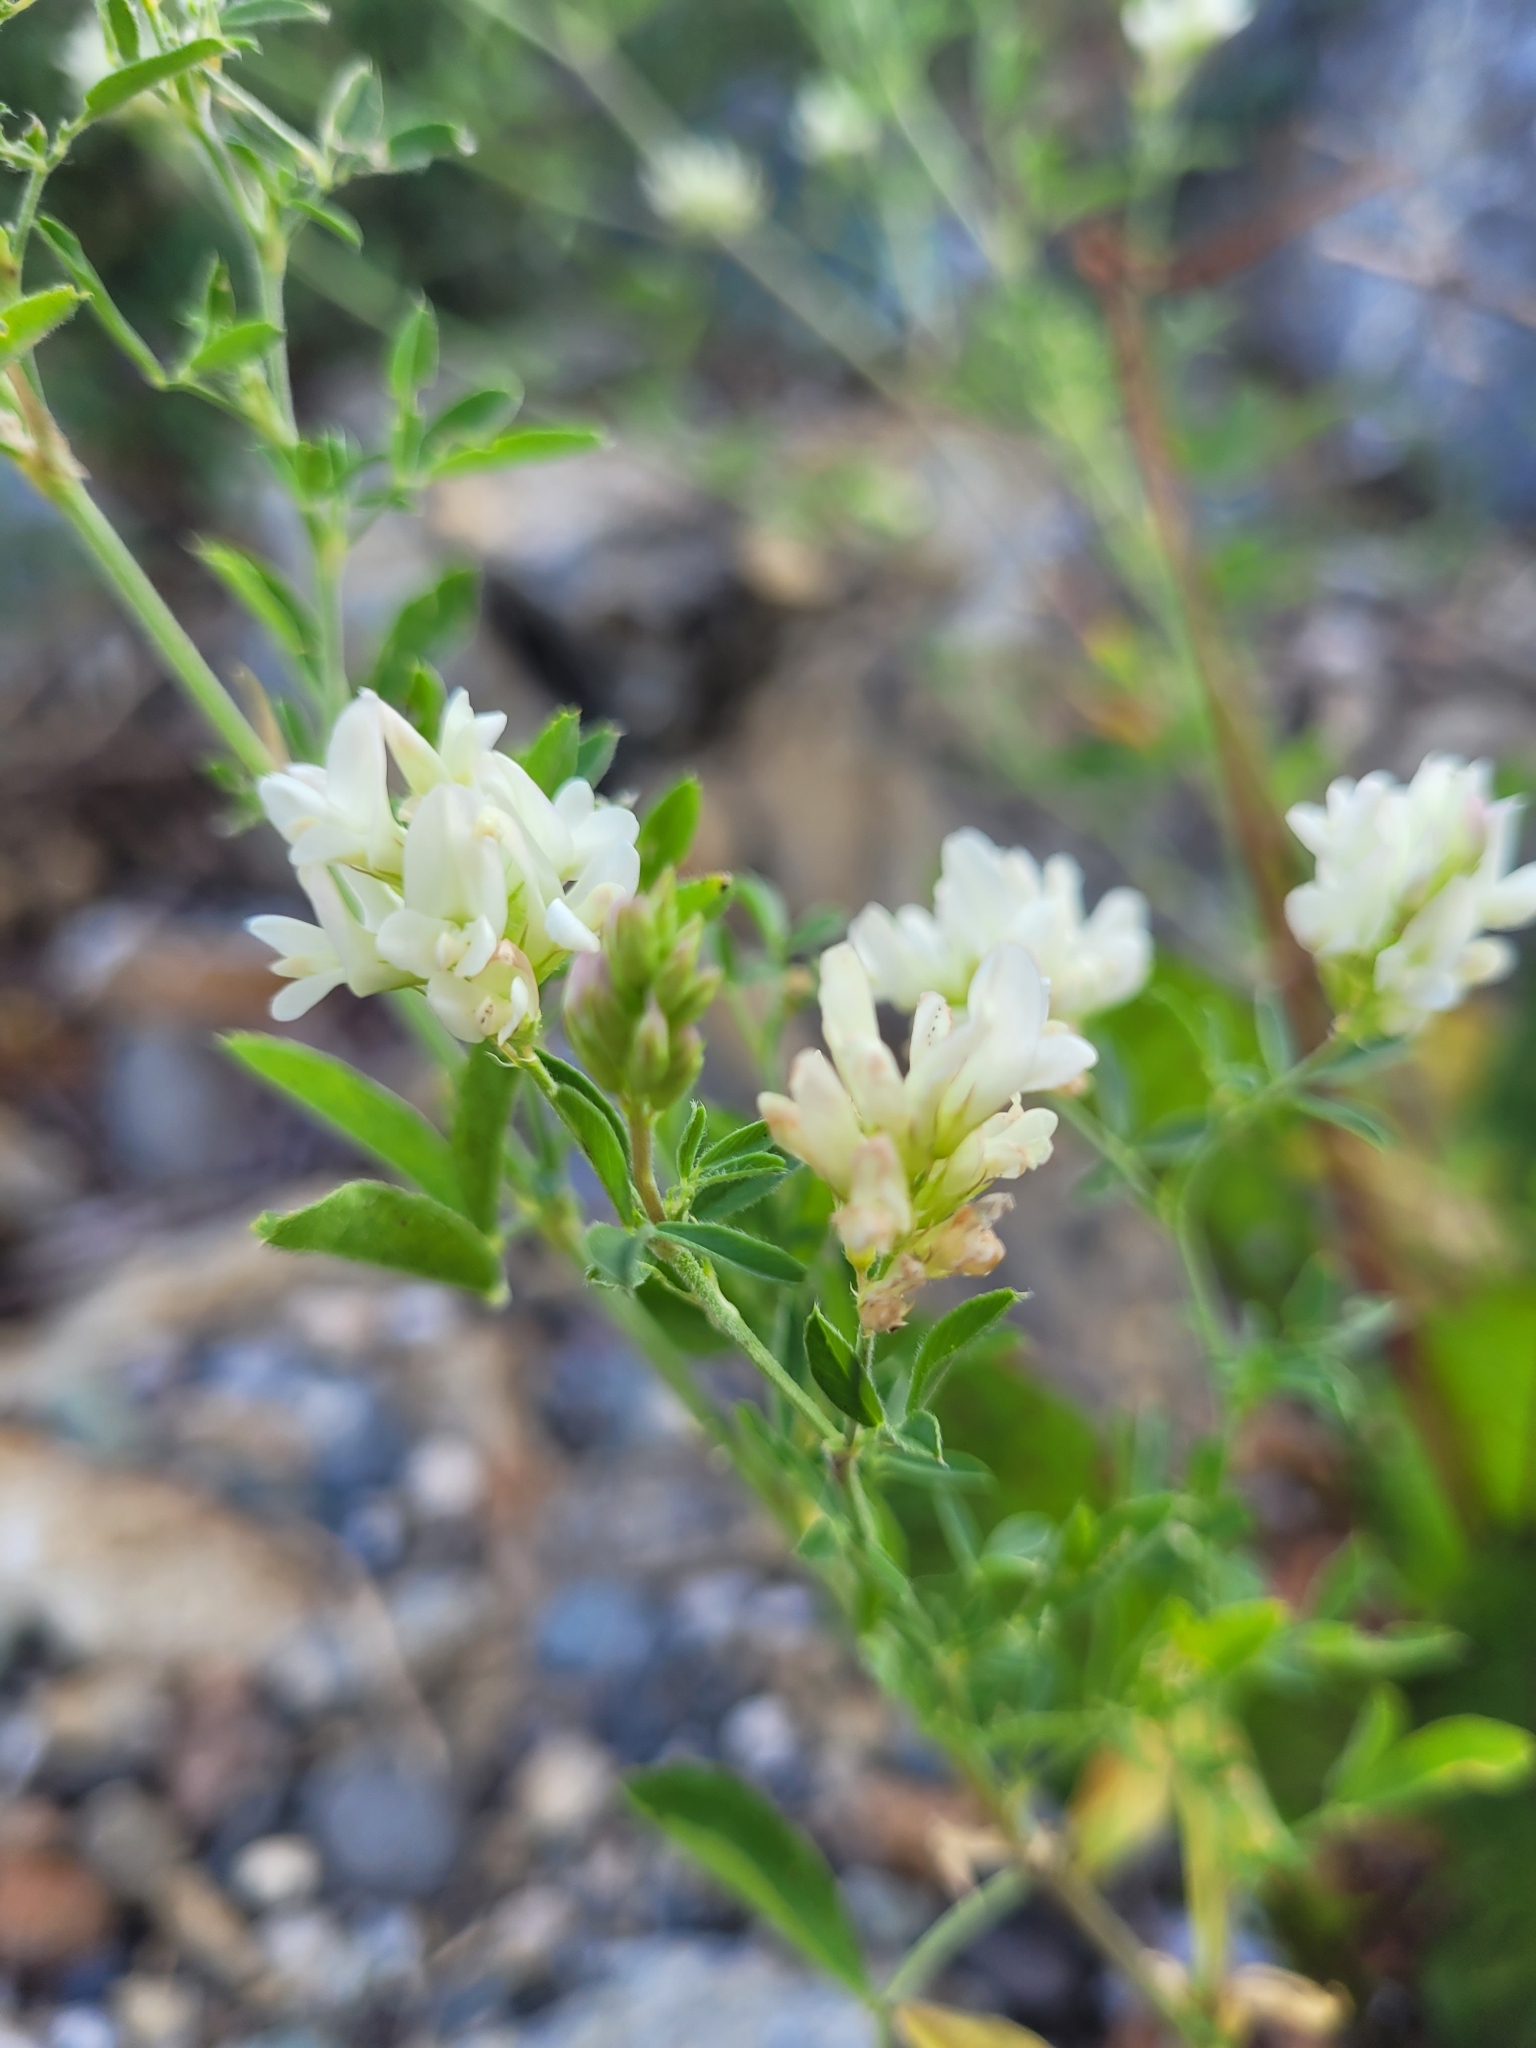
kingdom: Plantae
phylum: Tracheophyta
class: Magnoliopsida
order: Fabales
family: Fabaceae
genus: Medicago
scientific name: Medicago sativa
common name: Alfalfa
